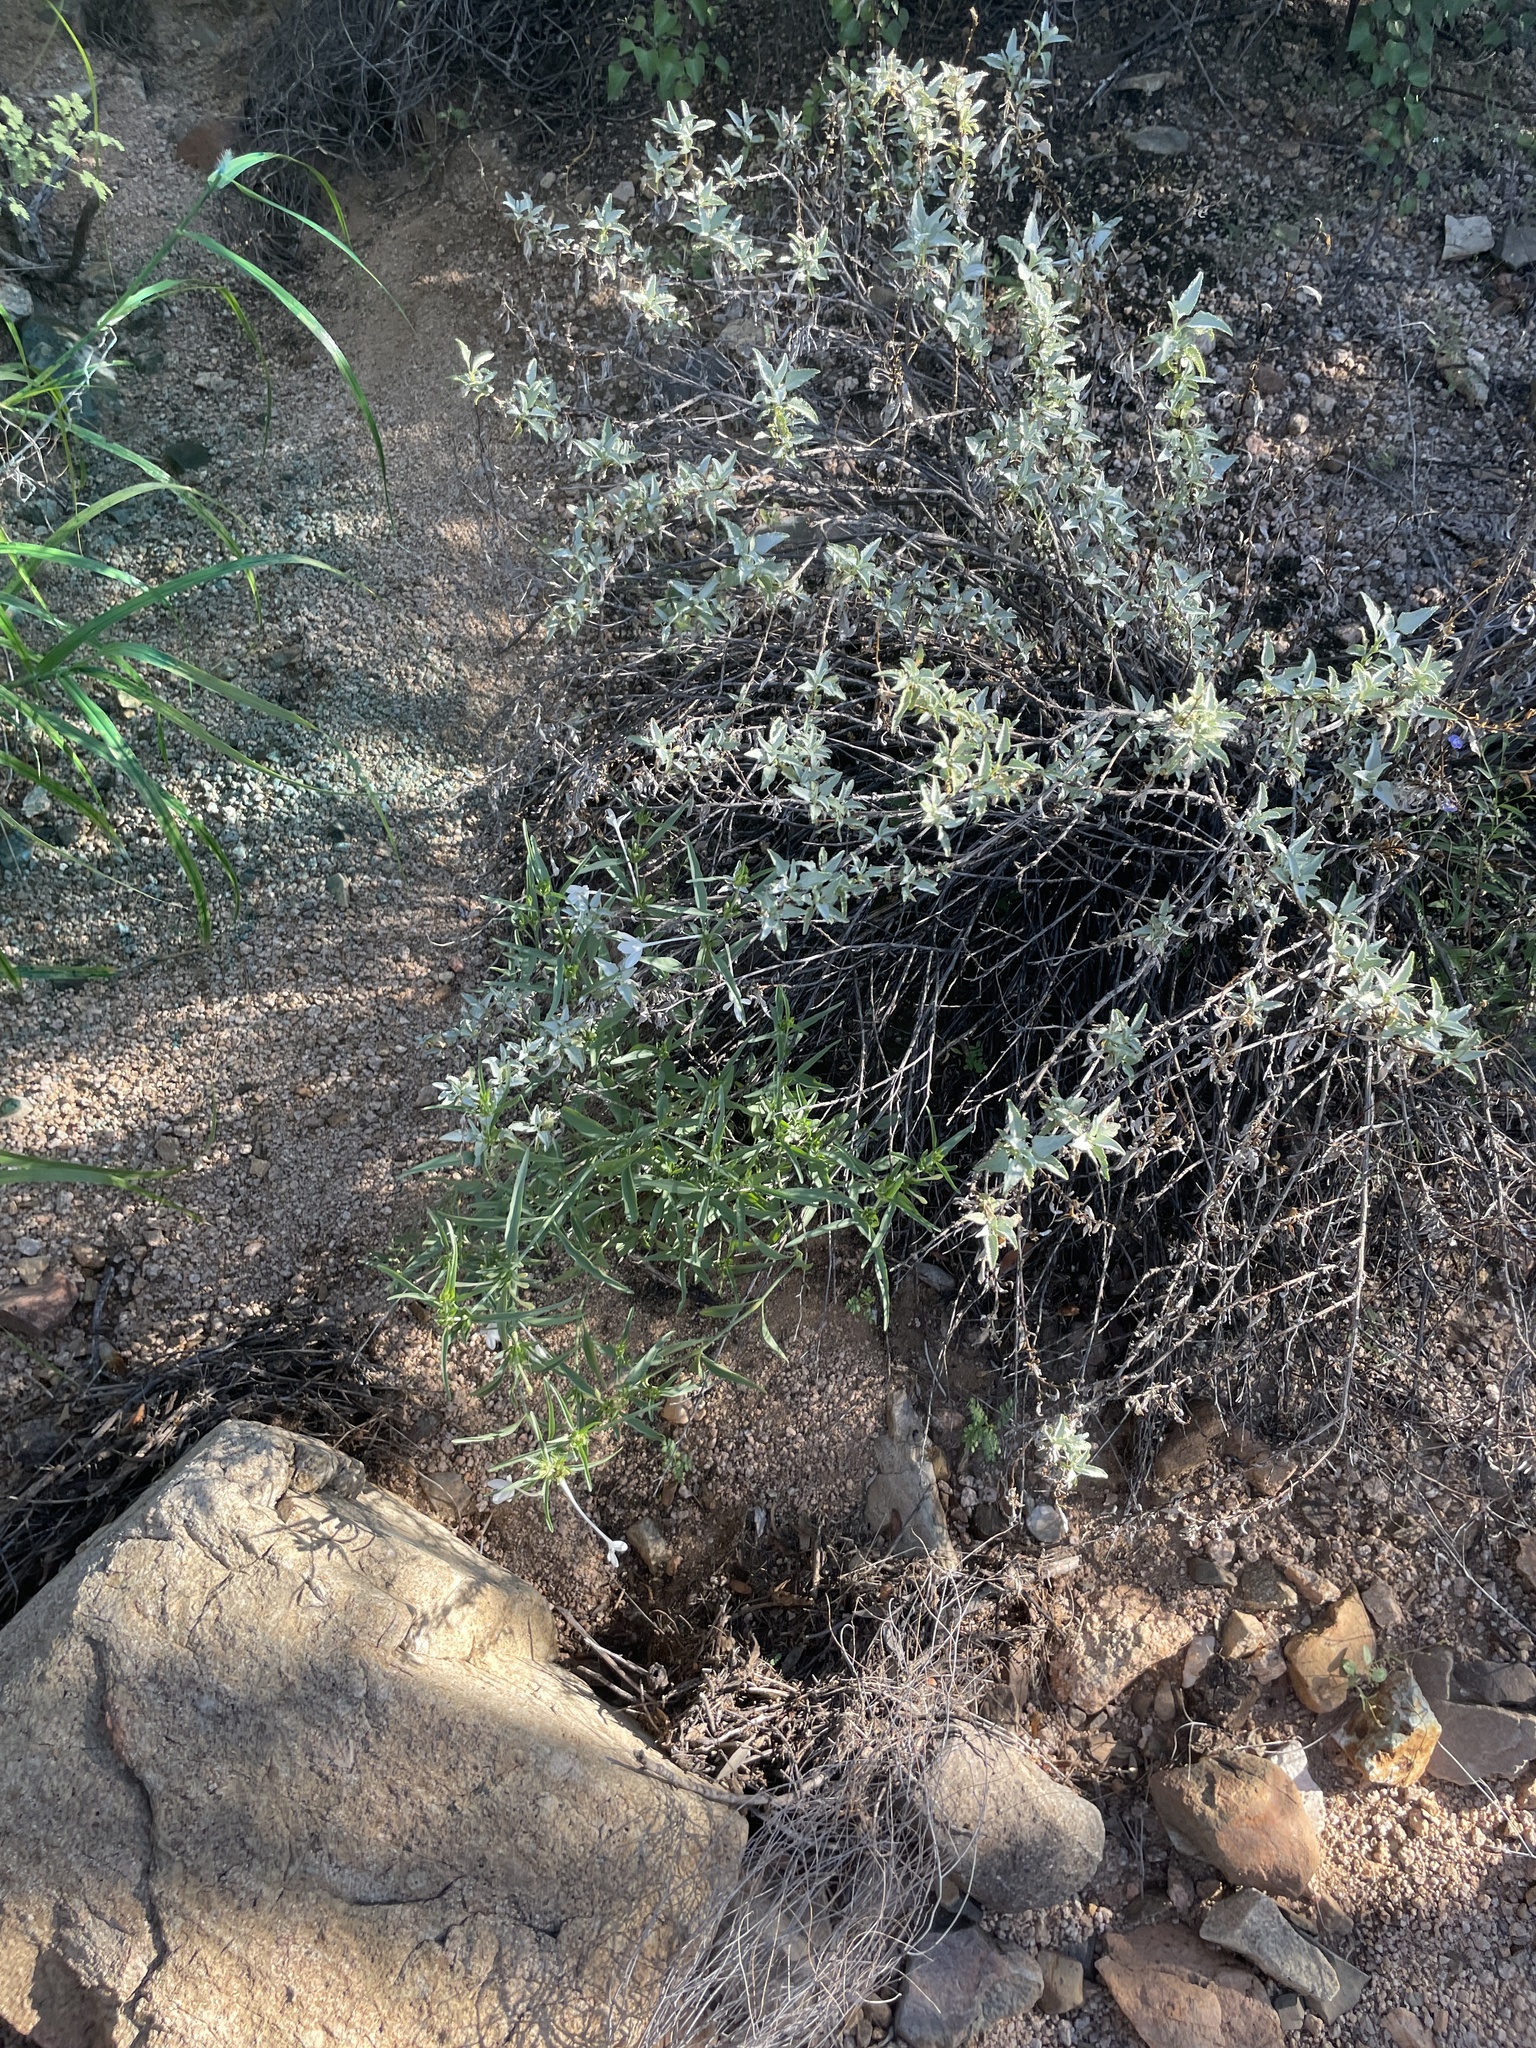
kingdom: Plantae
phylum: Tracheophyta
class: Magnoliopsida
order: Lamiales
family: Acanthaceae
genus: Justicia
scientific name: Justicia longii
